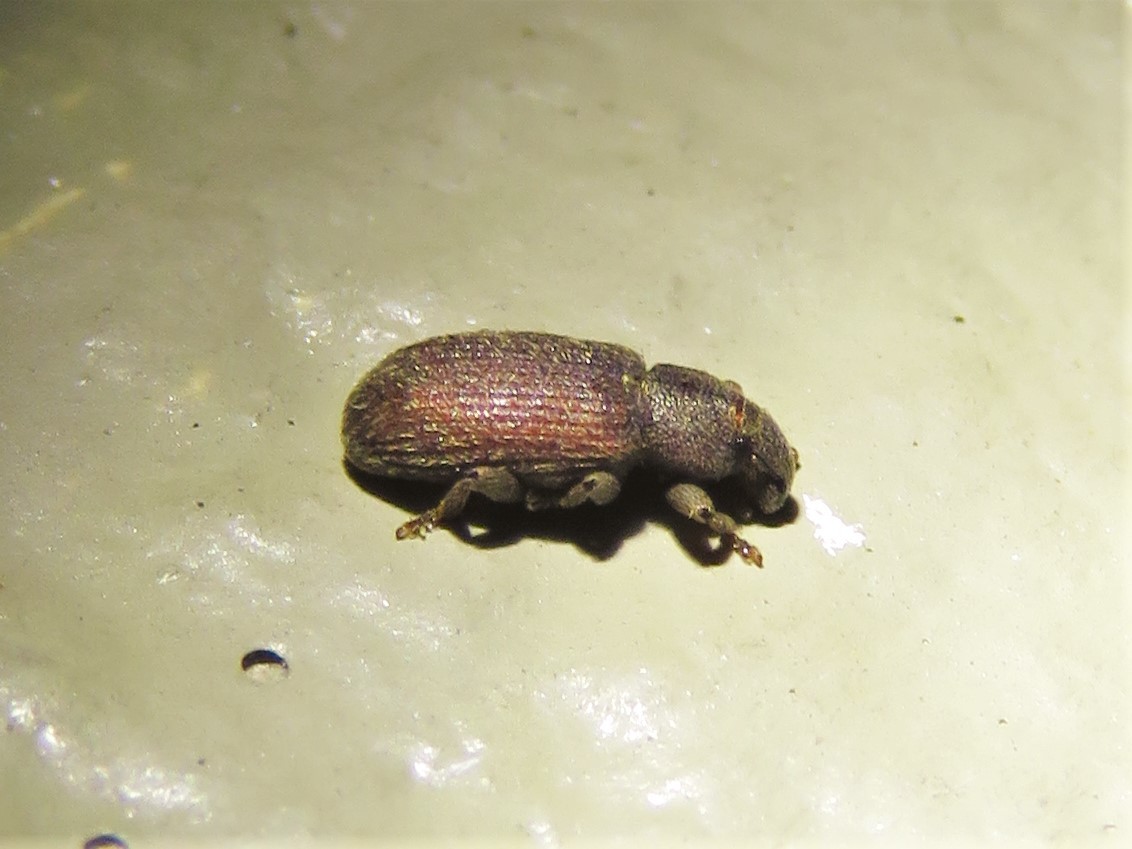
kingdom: Animalia
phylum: Arthropoda
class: Insecta
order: Coleoptera
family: Curculionidae
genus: Hormops
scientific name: Hormops abducens
